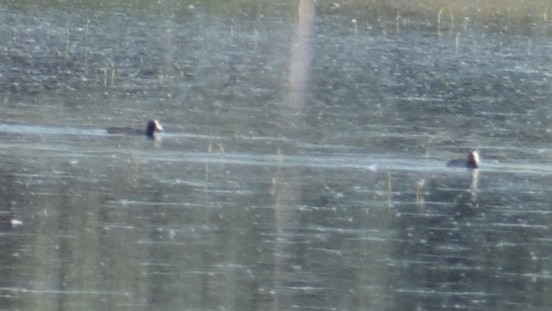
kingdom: Animalia
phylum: Chordata
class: Aves
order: Gruiformes
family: Rallidae
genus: Fulica
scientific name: Fulica atra
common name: Eurasian coot
